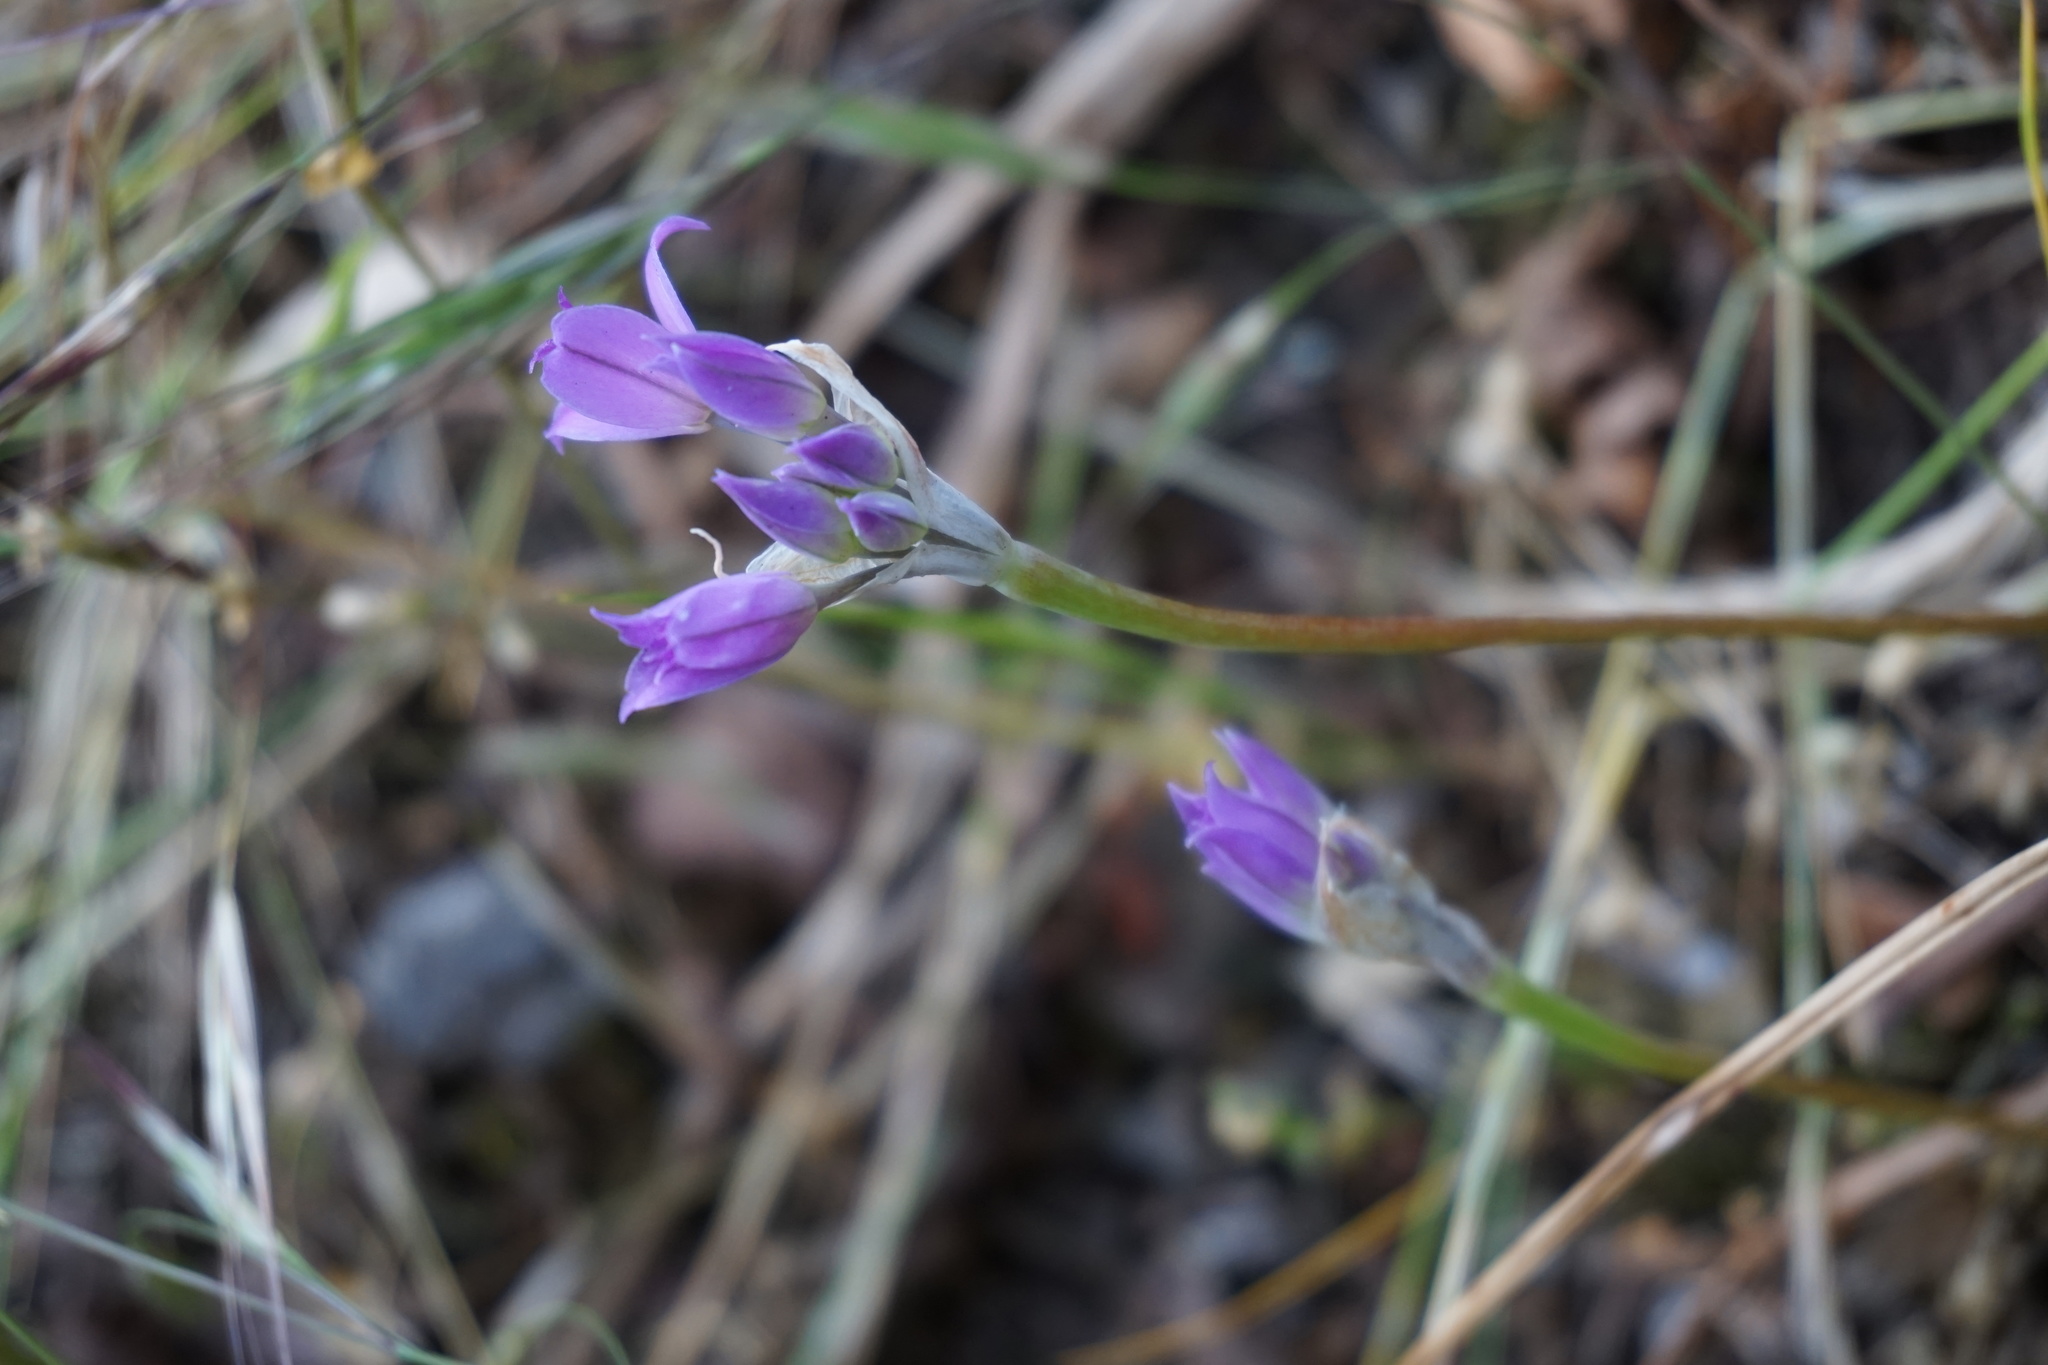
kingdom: Plantae
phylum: Tracheophyta
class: Liliopsida
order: Asparagales
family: Amaryllidaceae
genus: Allium
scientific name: Allium acuminatum
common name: Hooker's onion
